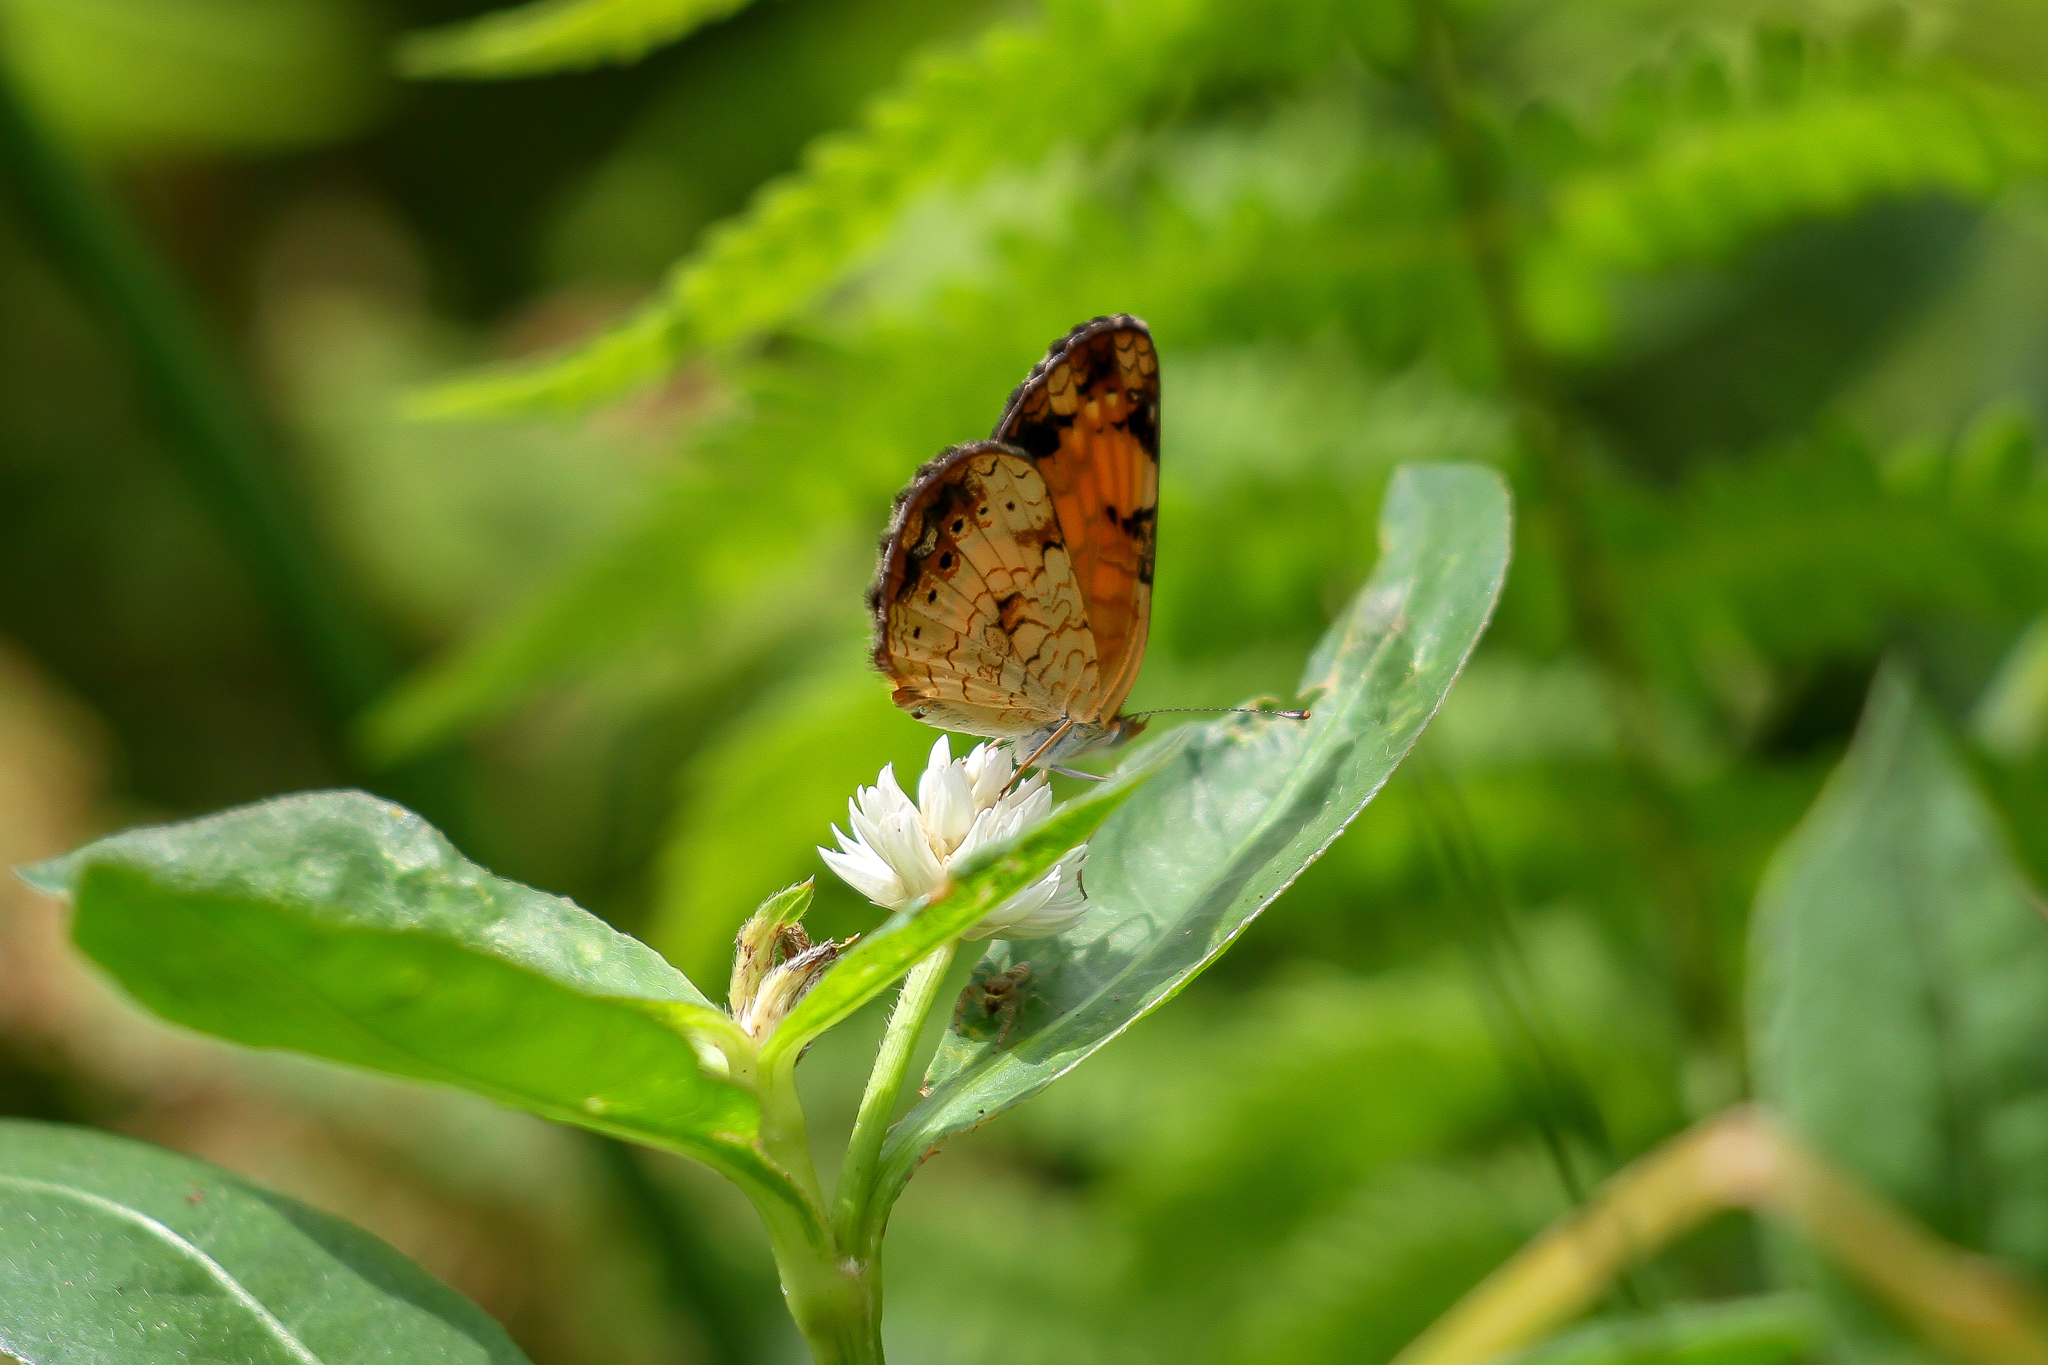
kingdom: Animalia
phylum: Arthropoda
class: Insecta
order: Lepidoptera
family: Nymphalidae
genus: Phyciodes
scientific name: Phyciodes tharos
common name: Pearl crescent
